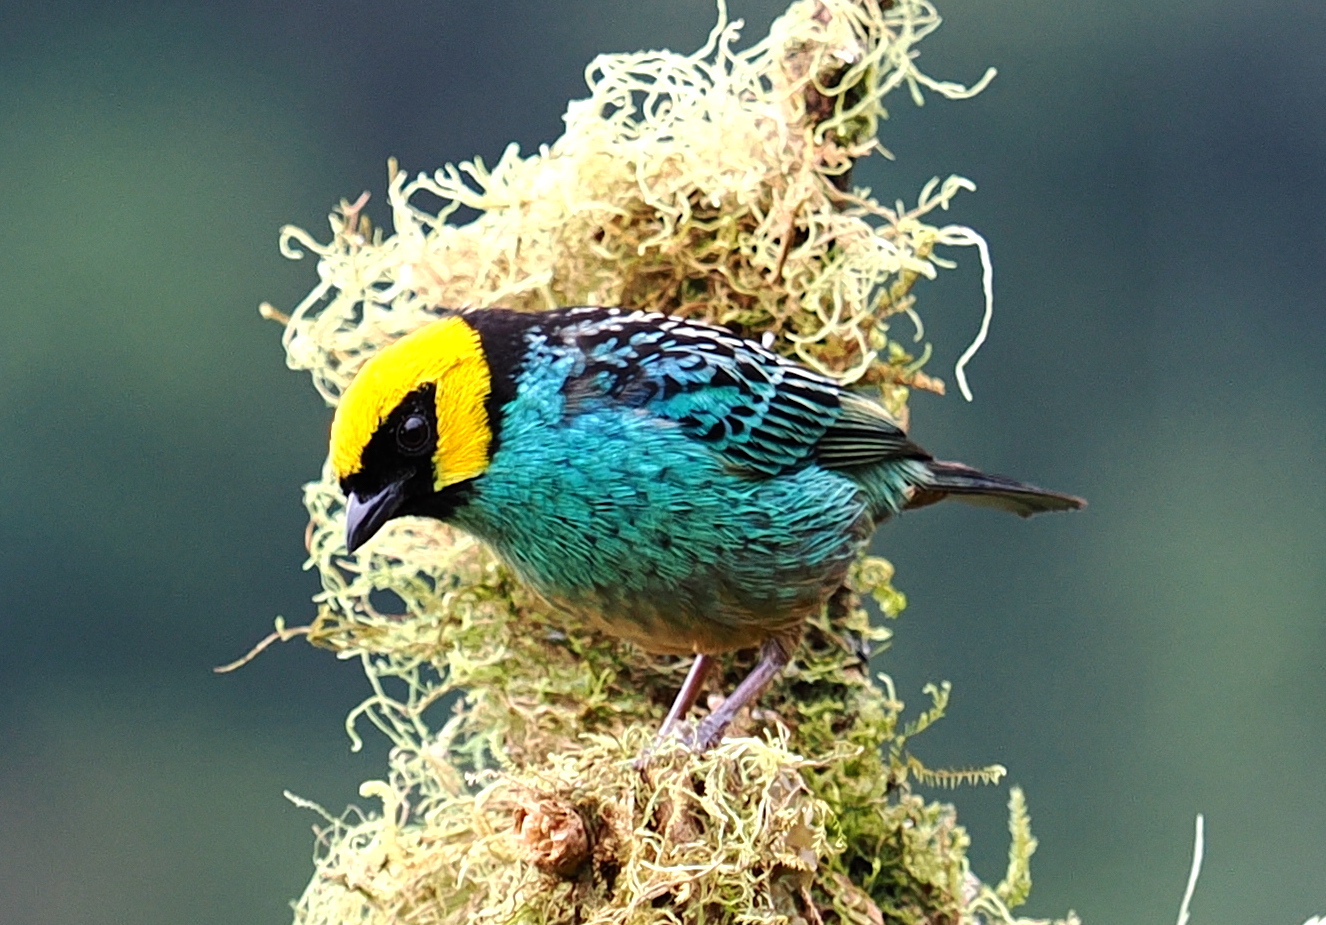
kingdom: Animalia
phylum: Chordata
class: Aves
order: Passeriformes
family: Thraupidae
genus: Tangara
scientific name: Tangara xanthocephala
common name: Saffron-crowned tanager
